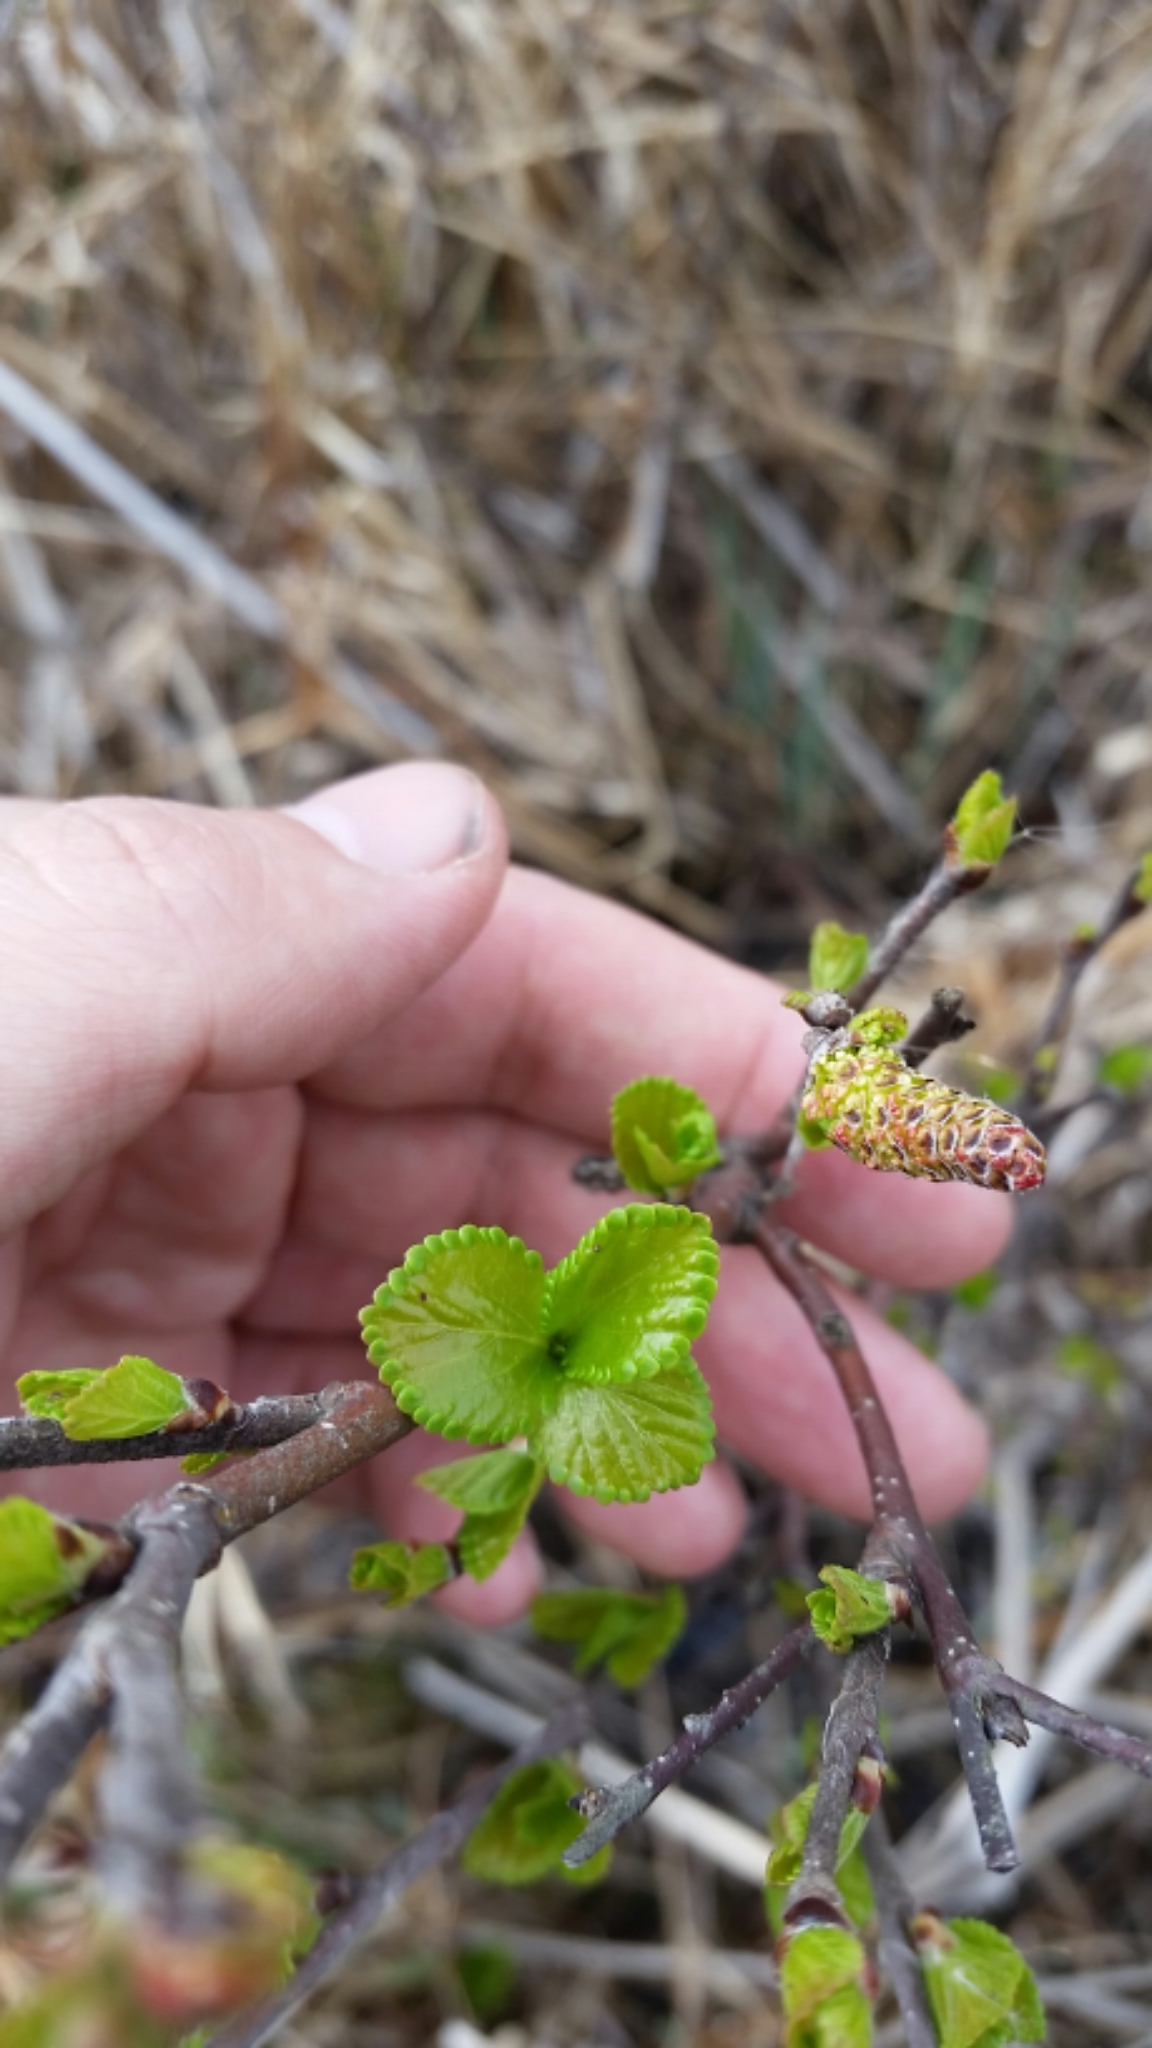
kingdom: Plantae
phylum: Tracheophyta
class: Magnoliopsida
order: Fagales
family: Betulaceae
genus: Betula
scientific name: Betula pumila
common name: Bog birch
